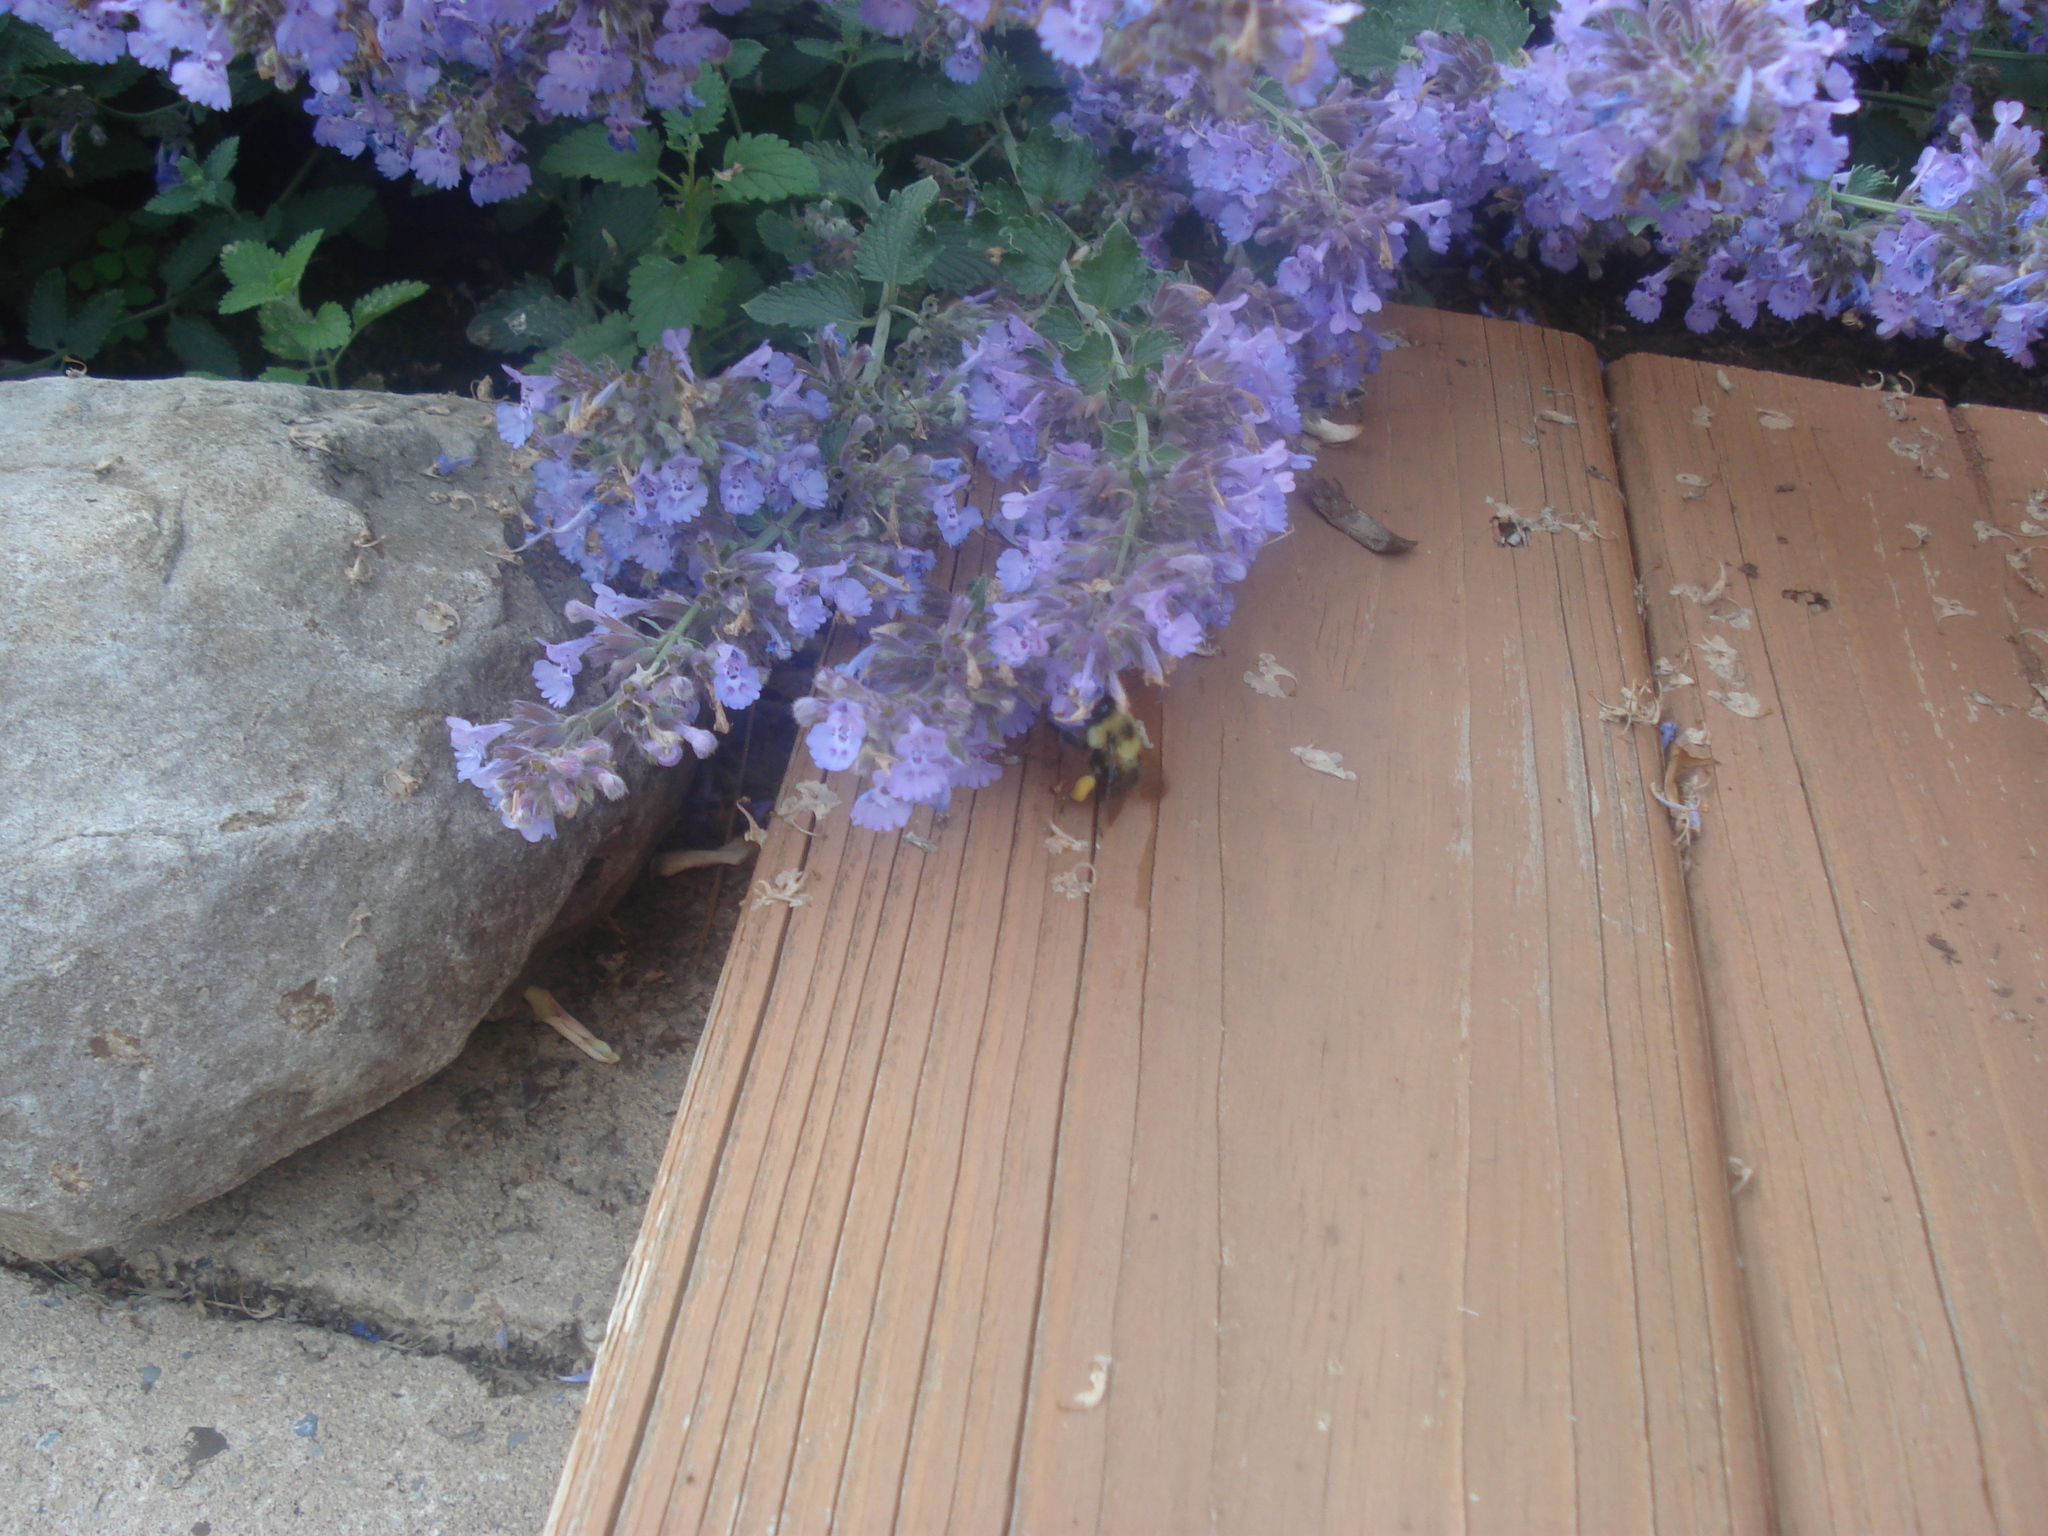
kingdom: Animalia
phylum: Arthropoda
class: Insecta
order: Hymenoptera
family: Apidae
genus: Bombus
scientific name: Bombus bimaculatus
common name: Two-spotted bumble bee
